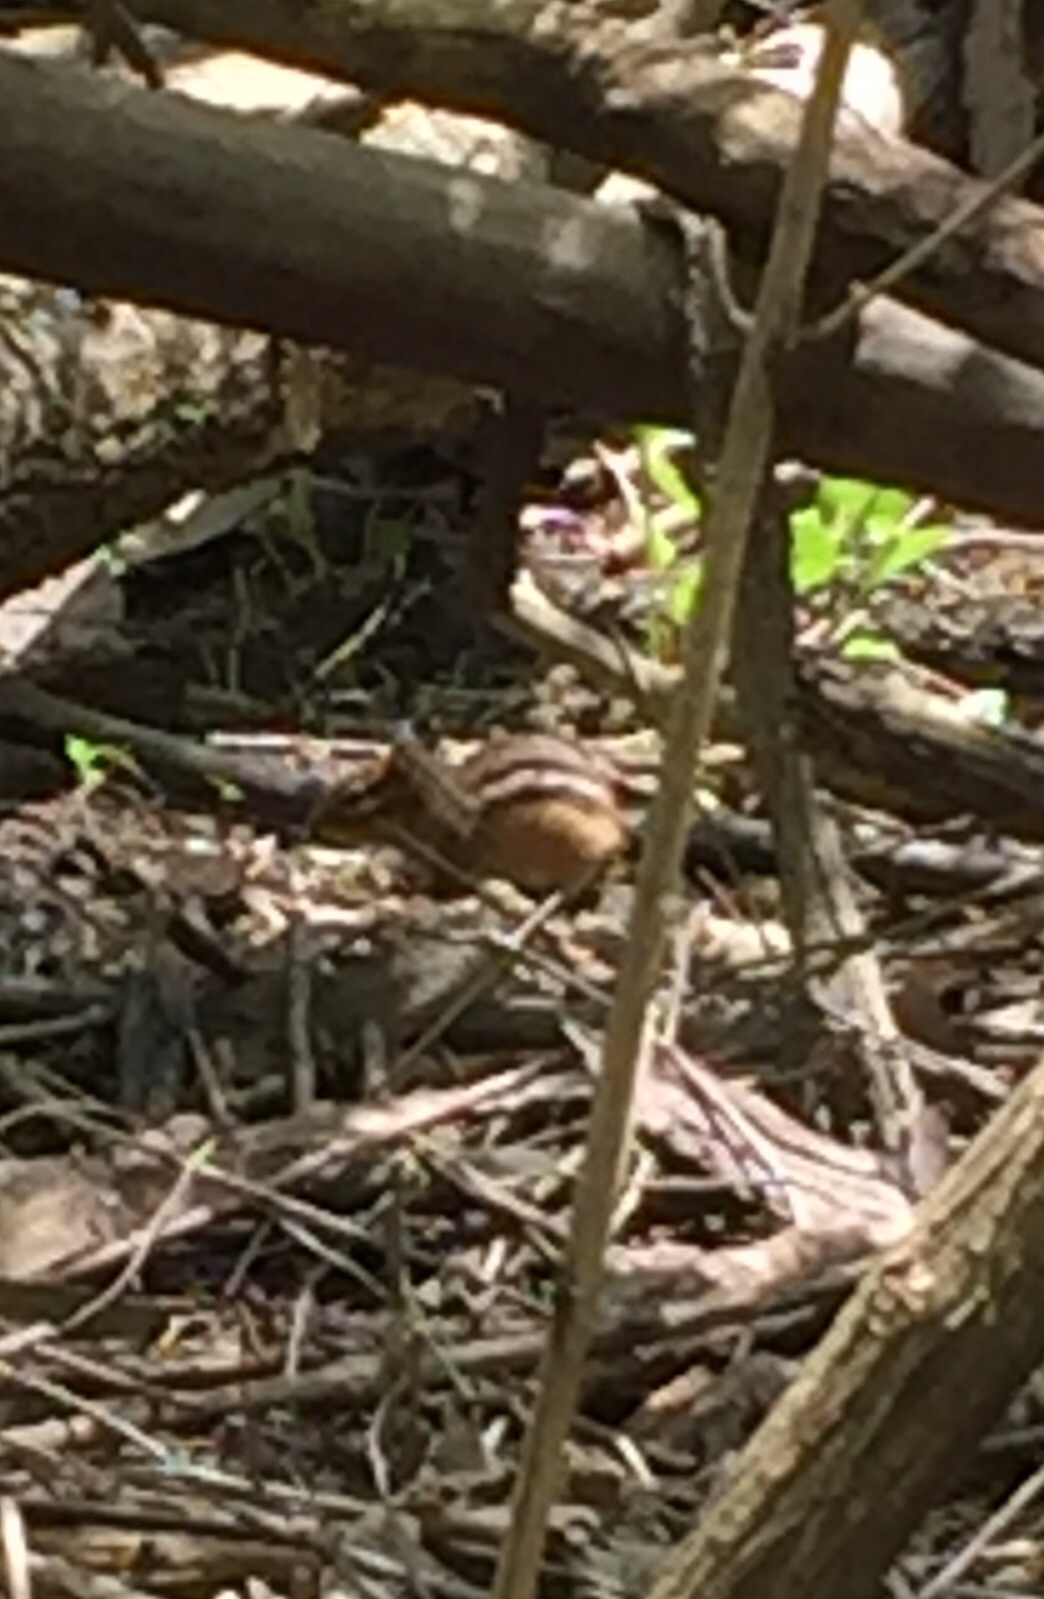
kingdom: Animalia
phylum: Chordata
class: Mammalia
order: Rodentia
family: Sciuridae
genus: Tamias
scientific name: Tamias striatus
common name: Eastern chipmunk
